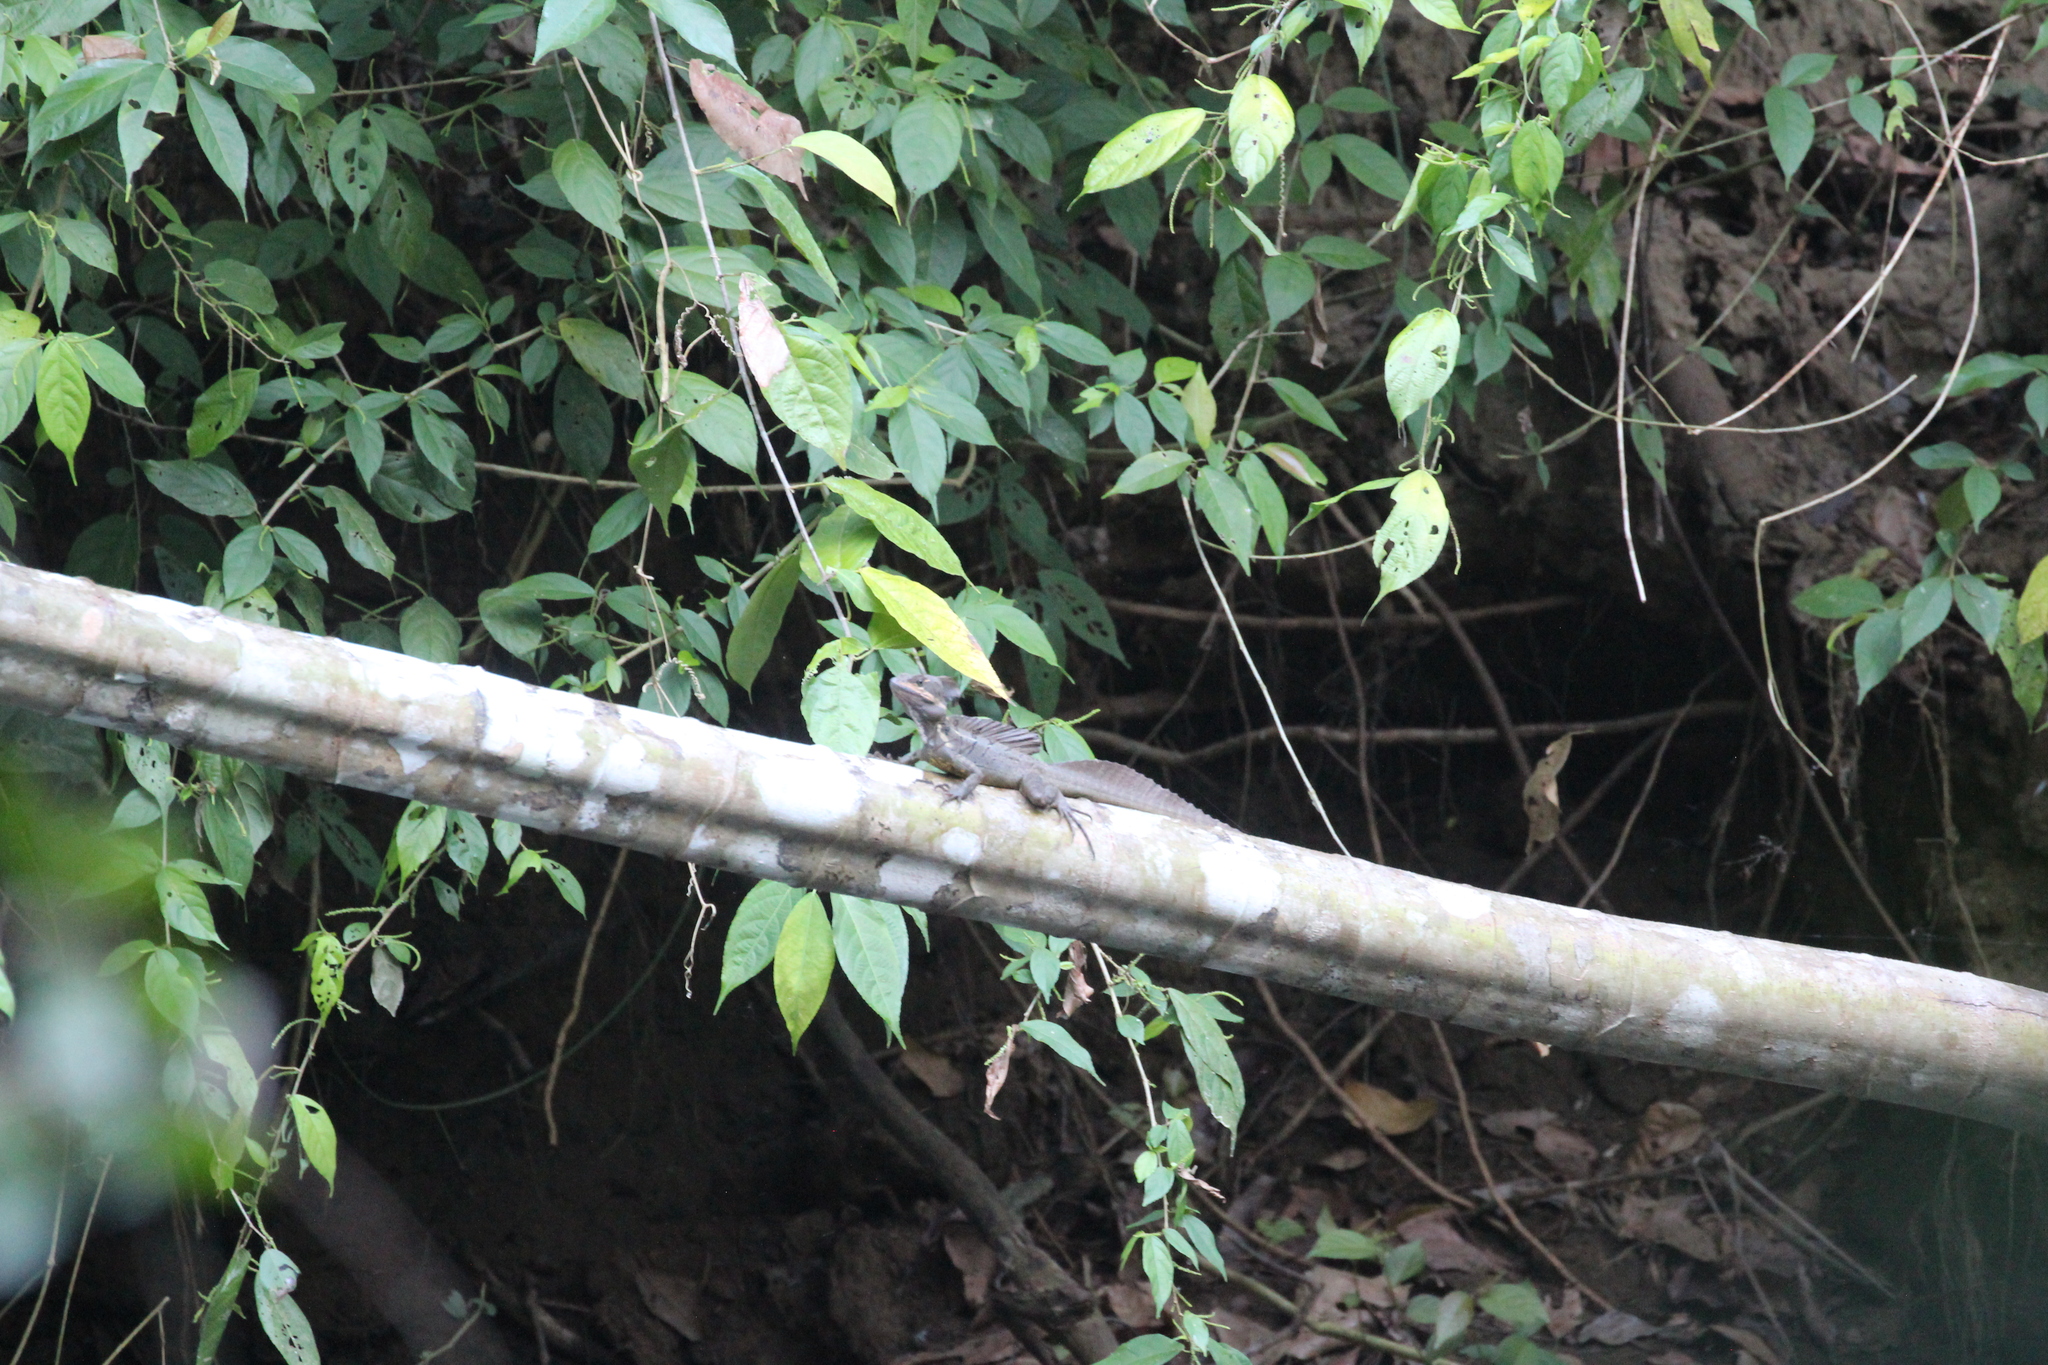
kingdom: Animalia
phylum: Chordata
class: Squamata
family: Corytophanidae
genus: Basiliscus
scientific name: Basiliscus basiliscus
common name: Common basilisk
